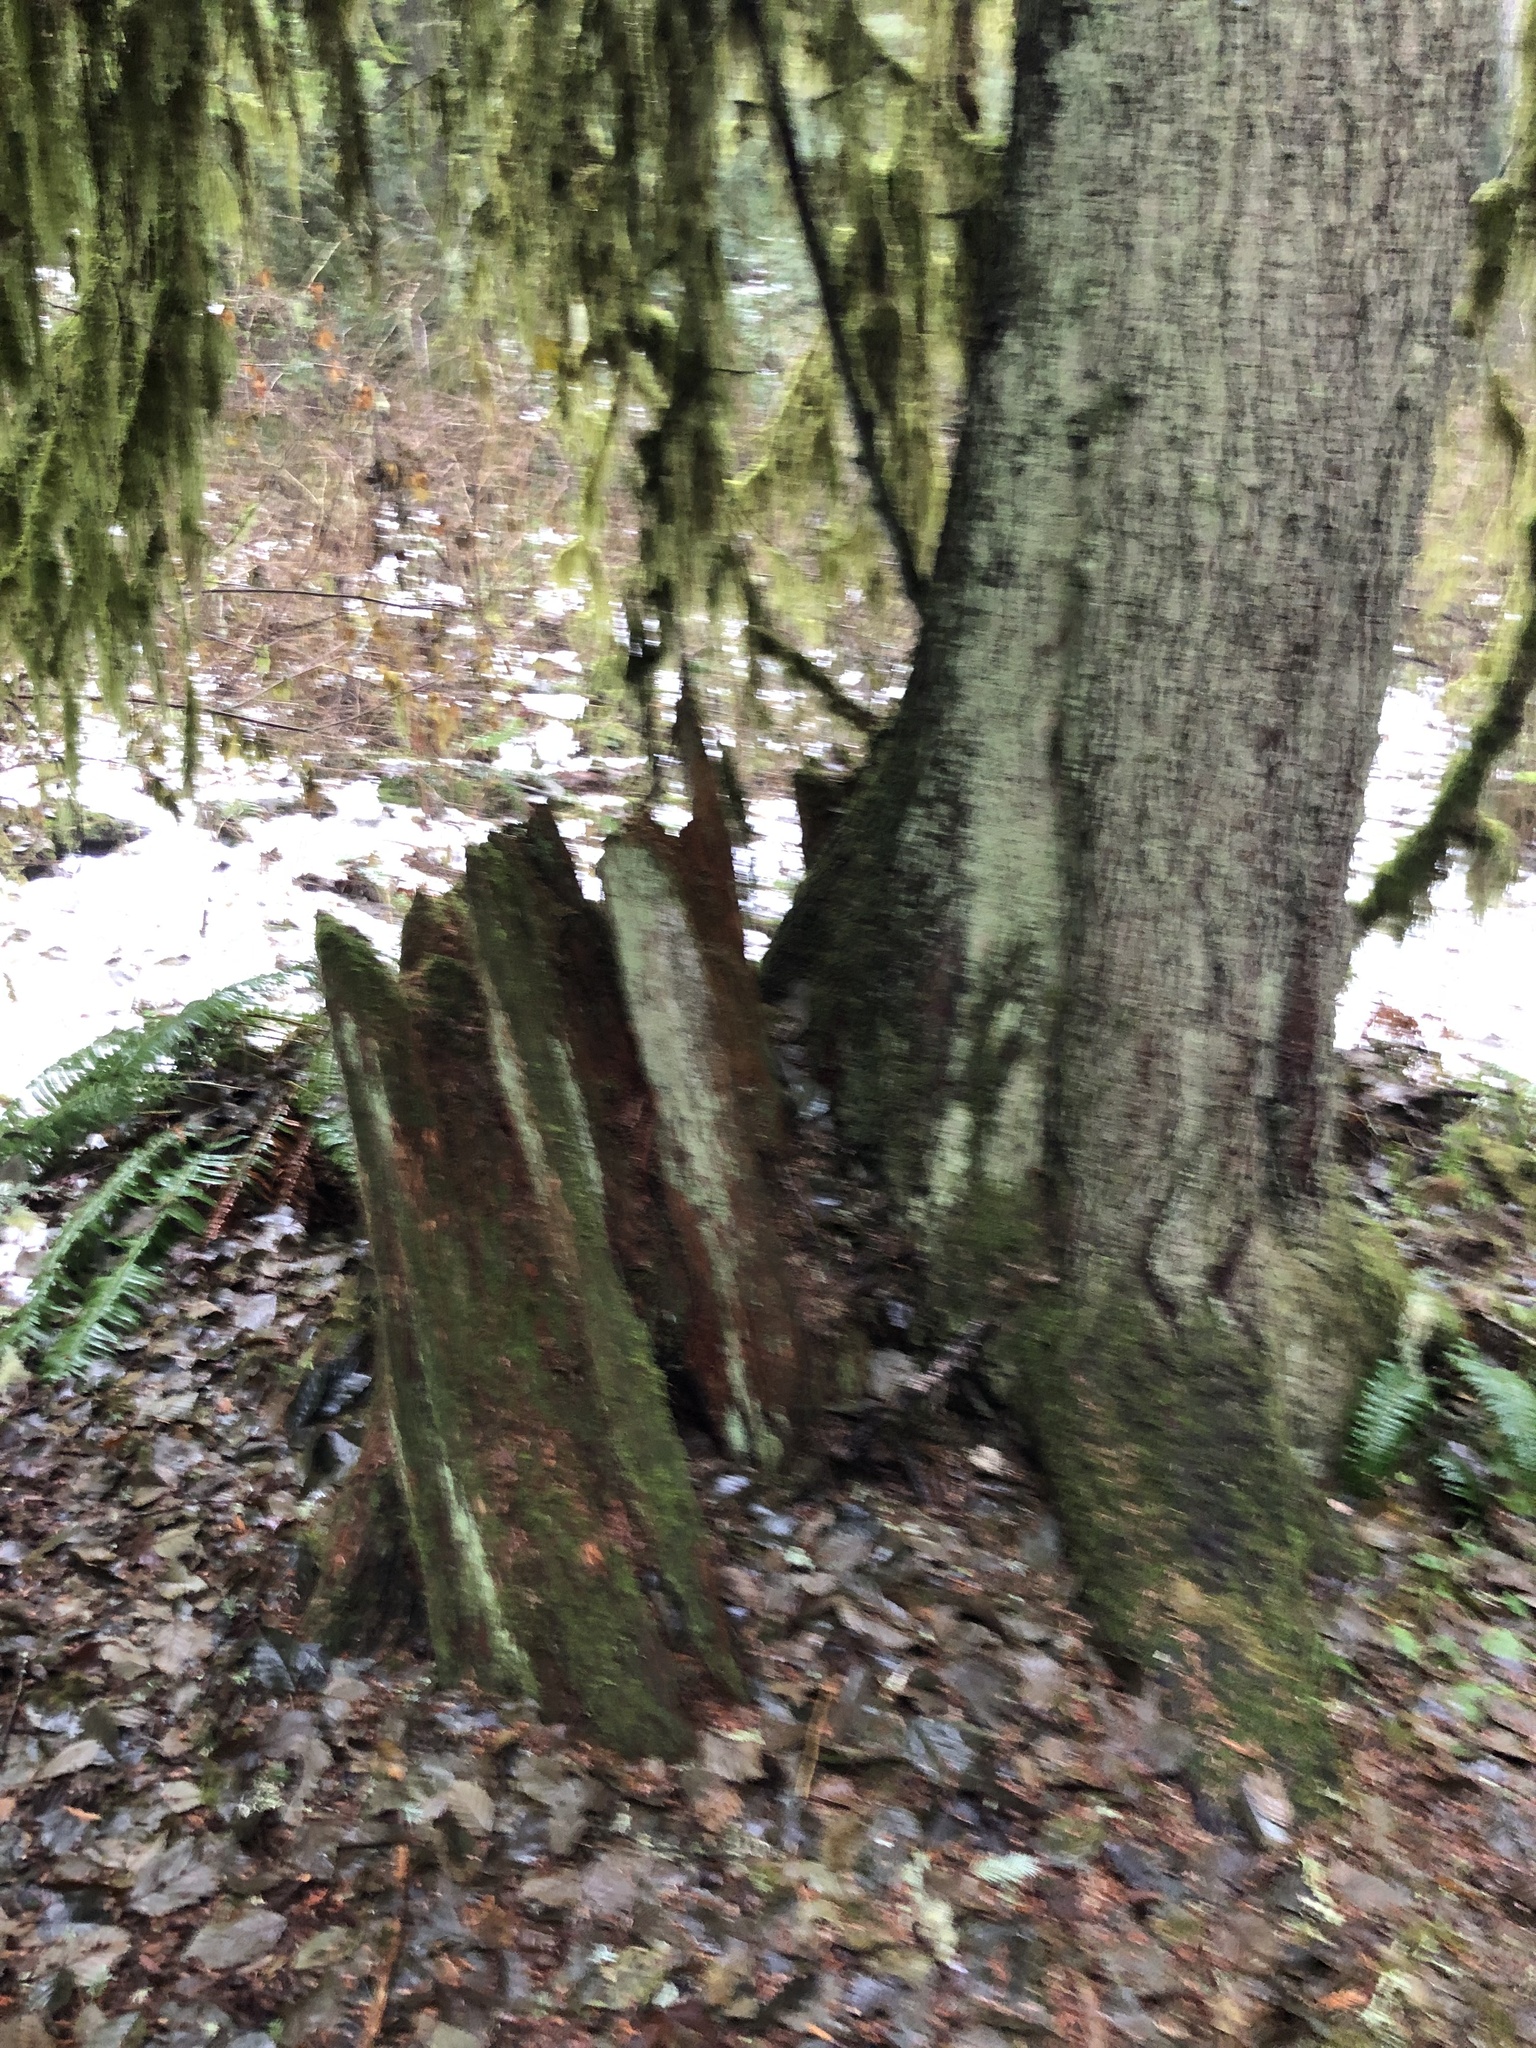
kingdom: Plantae
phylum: Tracheophyta
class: Pinopsida
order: Pinales
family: Pinaceae
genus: Tsuga
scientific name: Tsuga heterophylla
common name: Western hemlock
